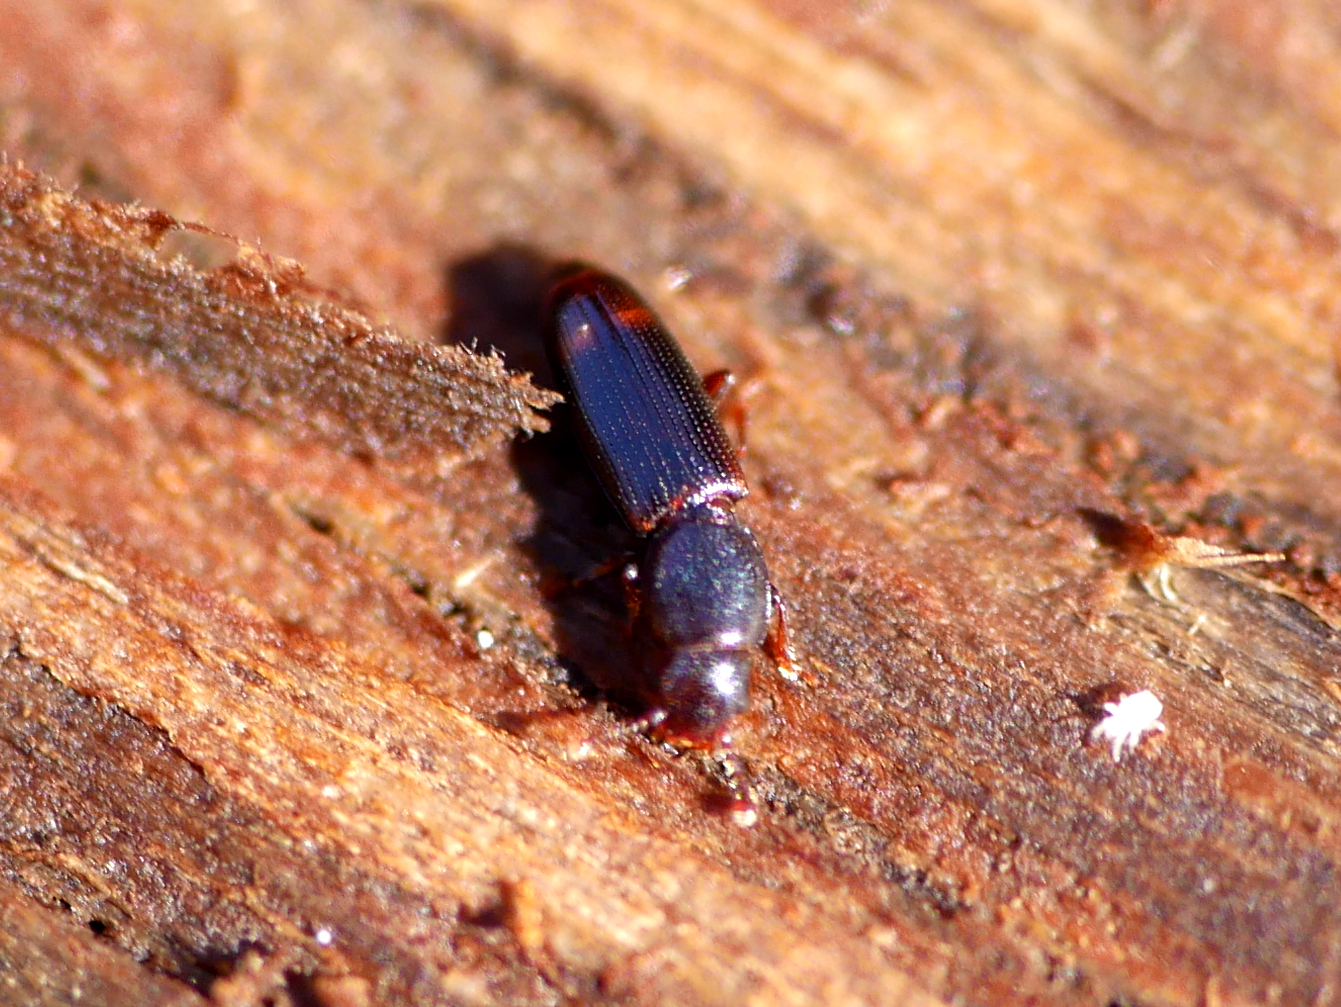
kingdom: Animalia
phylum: Arthropoda
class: Insecta
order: Coleoptera
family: Monotomidae
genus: Rhizophagus
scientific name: Rhizophagus bipustulatus
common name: Root-eating beetle
